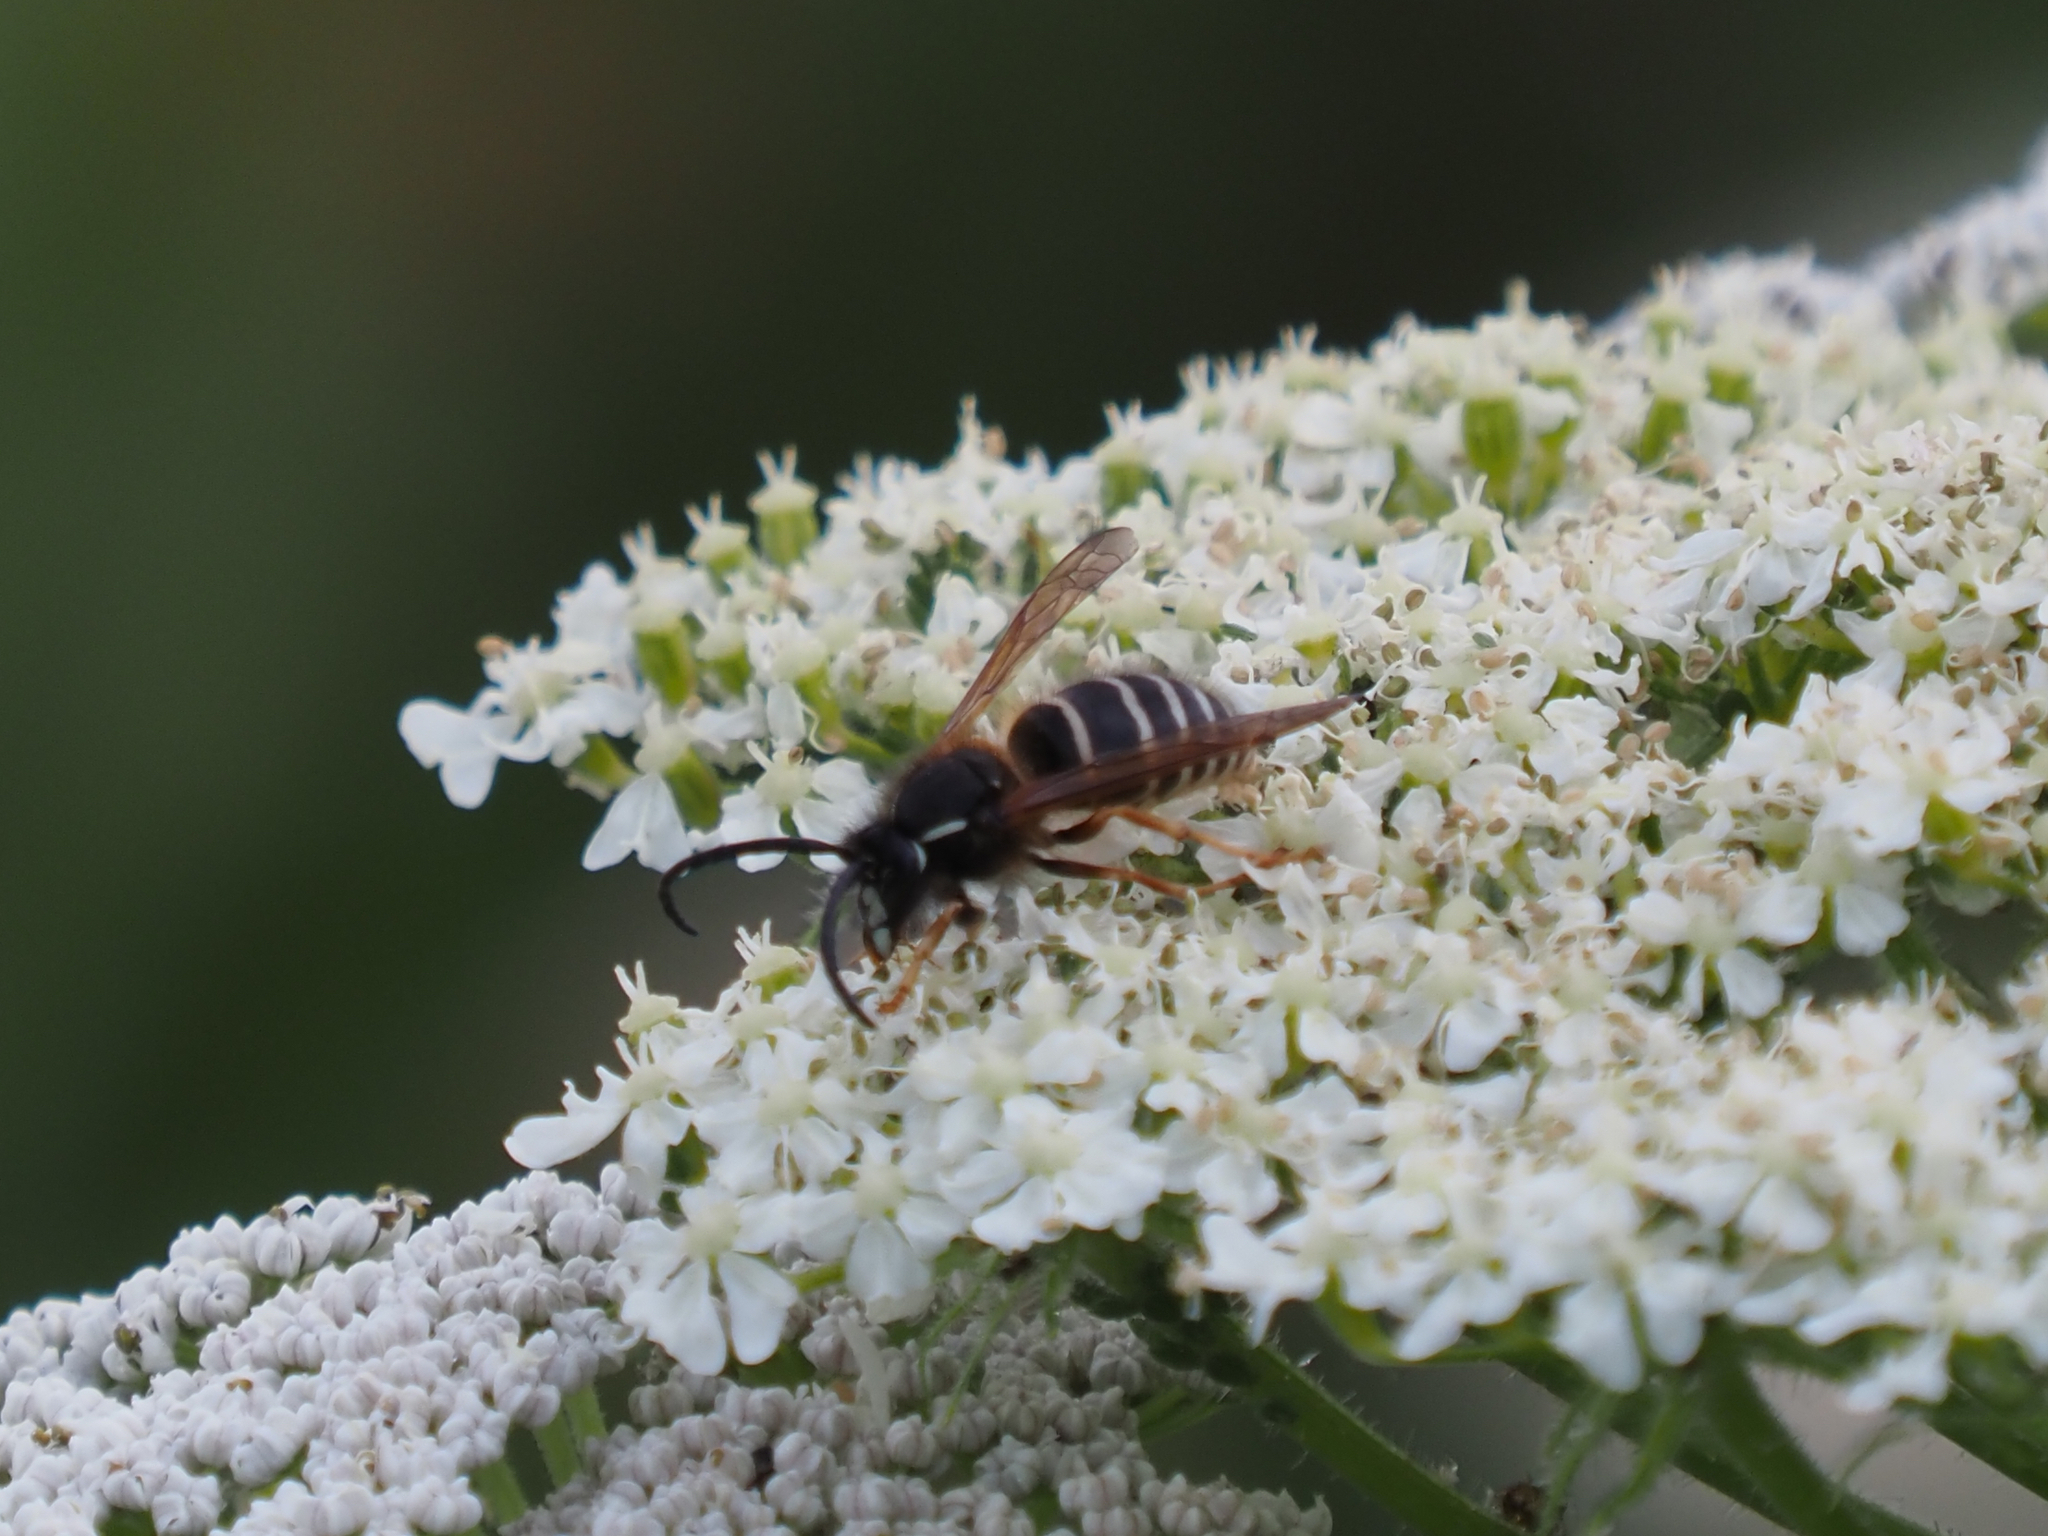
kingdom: Animalia
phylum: Arthropoda
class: Insecta
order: Hymenoptera
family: Vespidae
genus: Dolichovespula
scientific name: Dolichovespula norwegica
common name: Norwegian wasp
